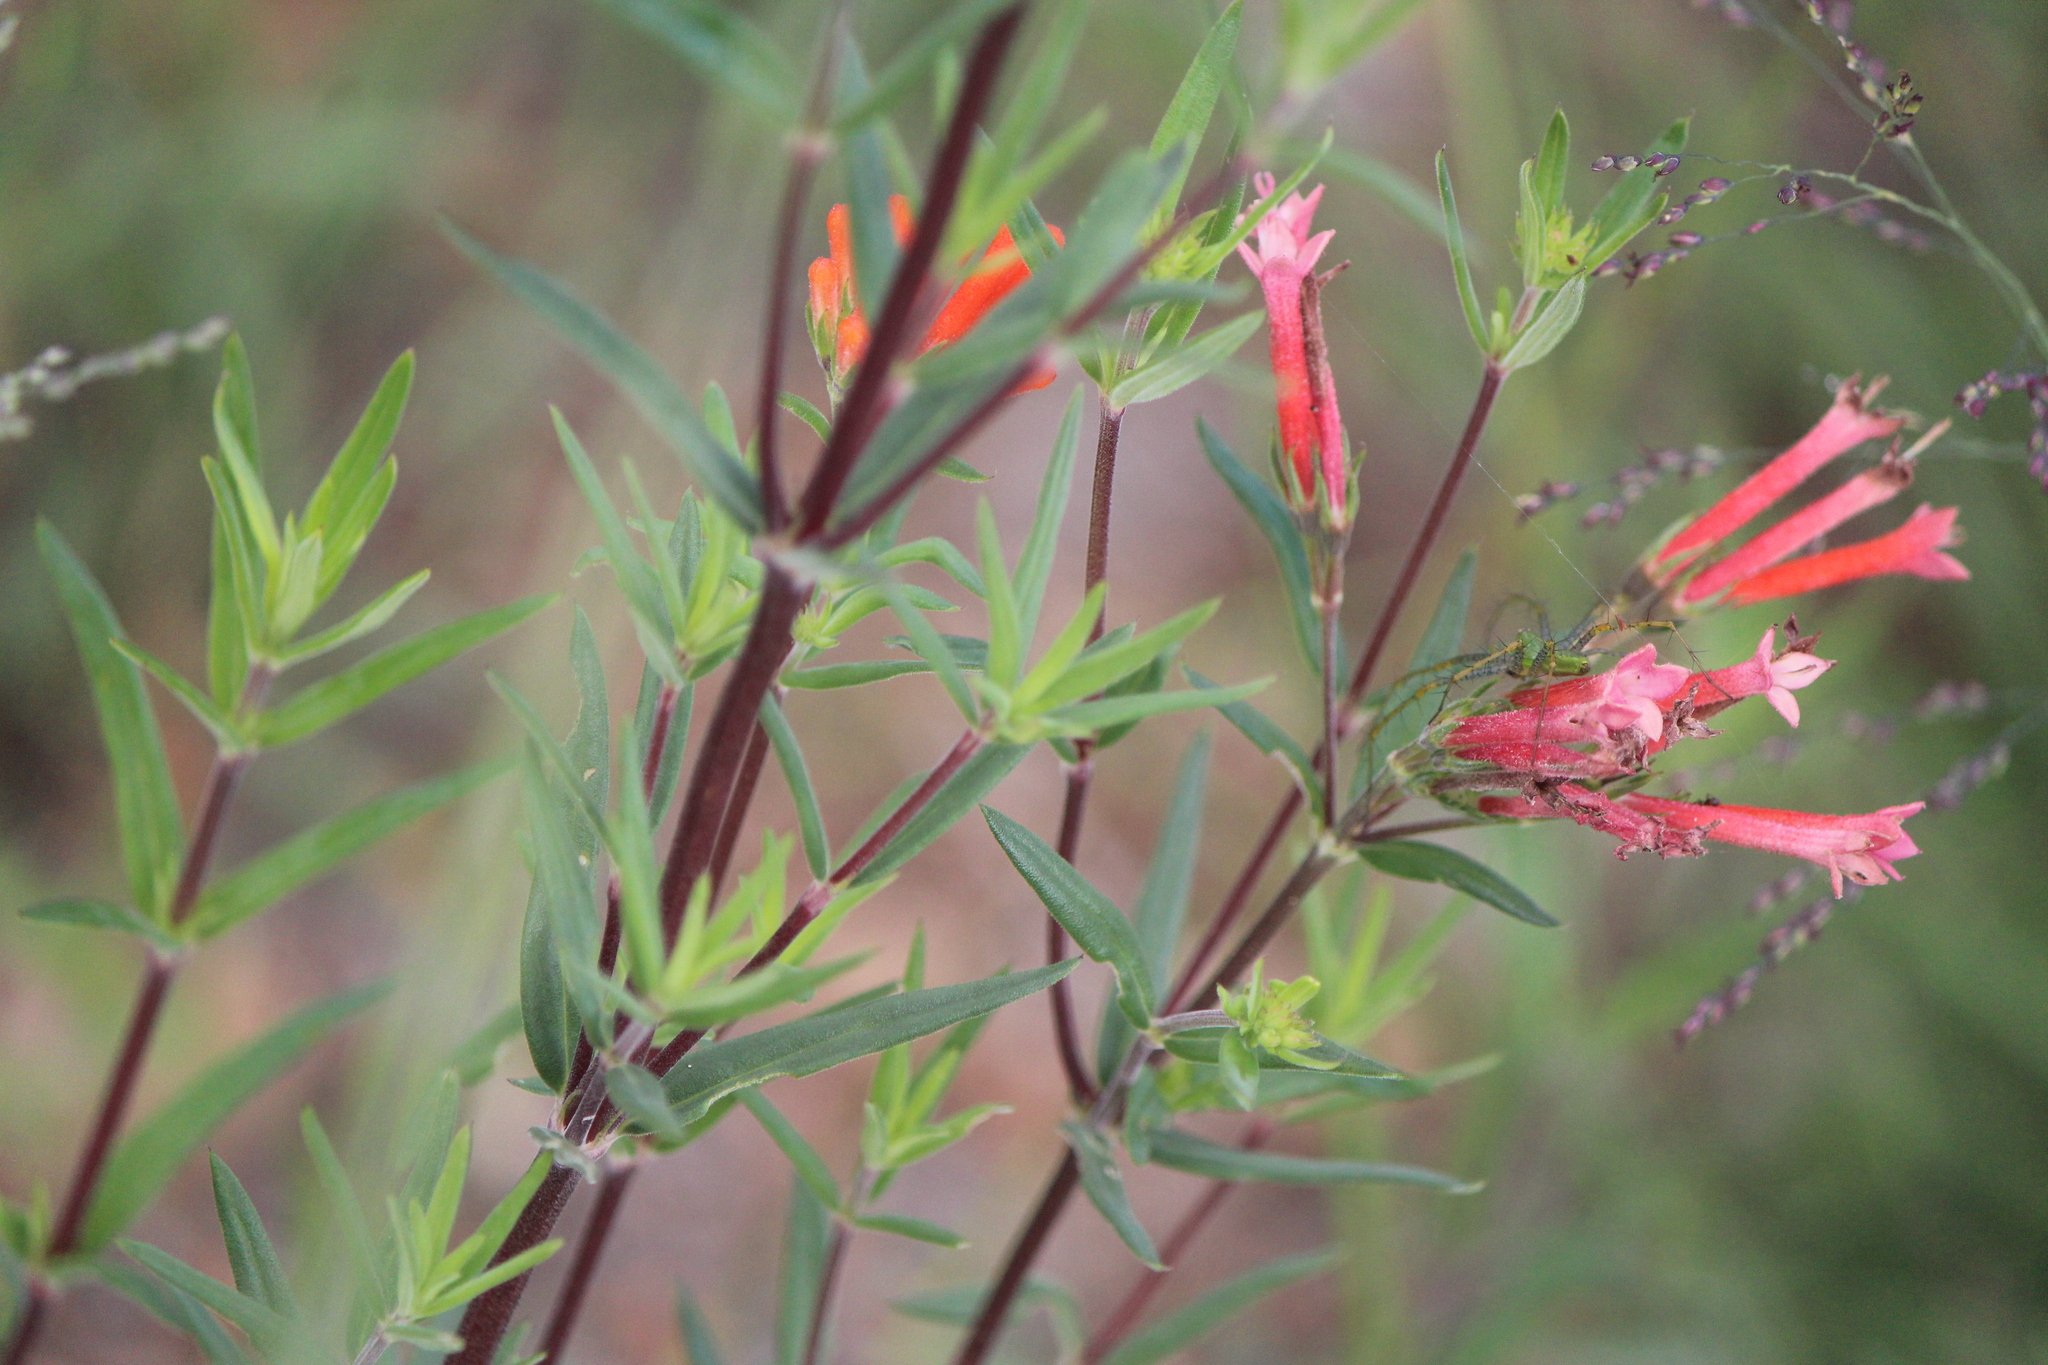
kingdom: Plantae
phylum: Tracheophyta
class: Magnoliopsida
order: Gentianales
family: Rubiaceae
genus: Bouvardia
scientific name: Bouvardia ternifolia
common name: Scarlet bouvardia
